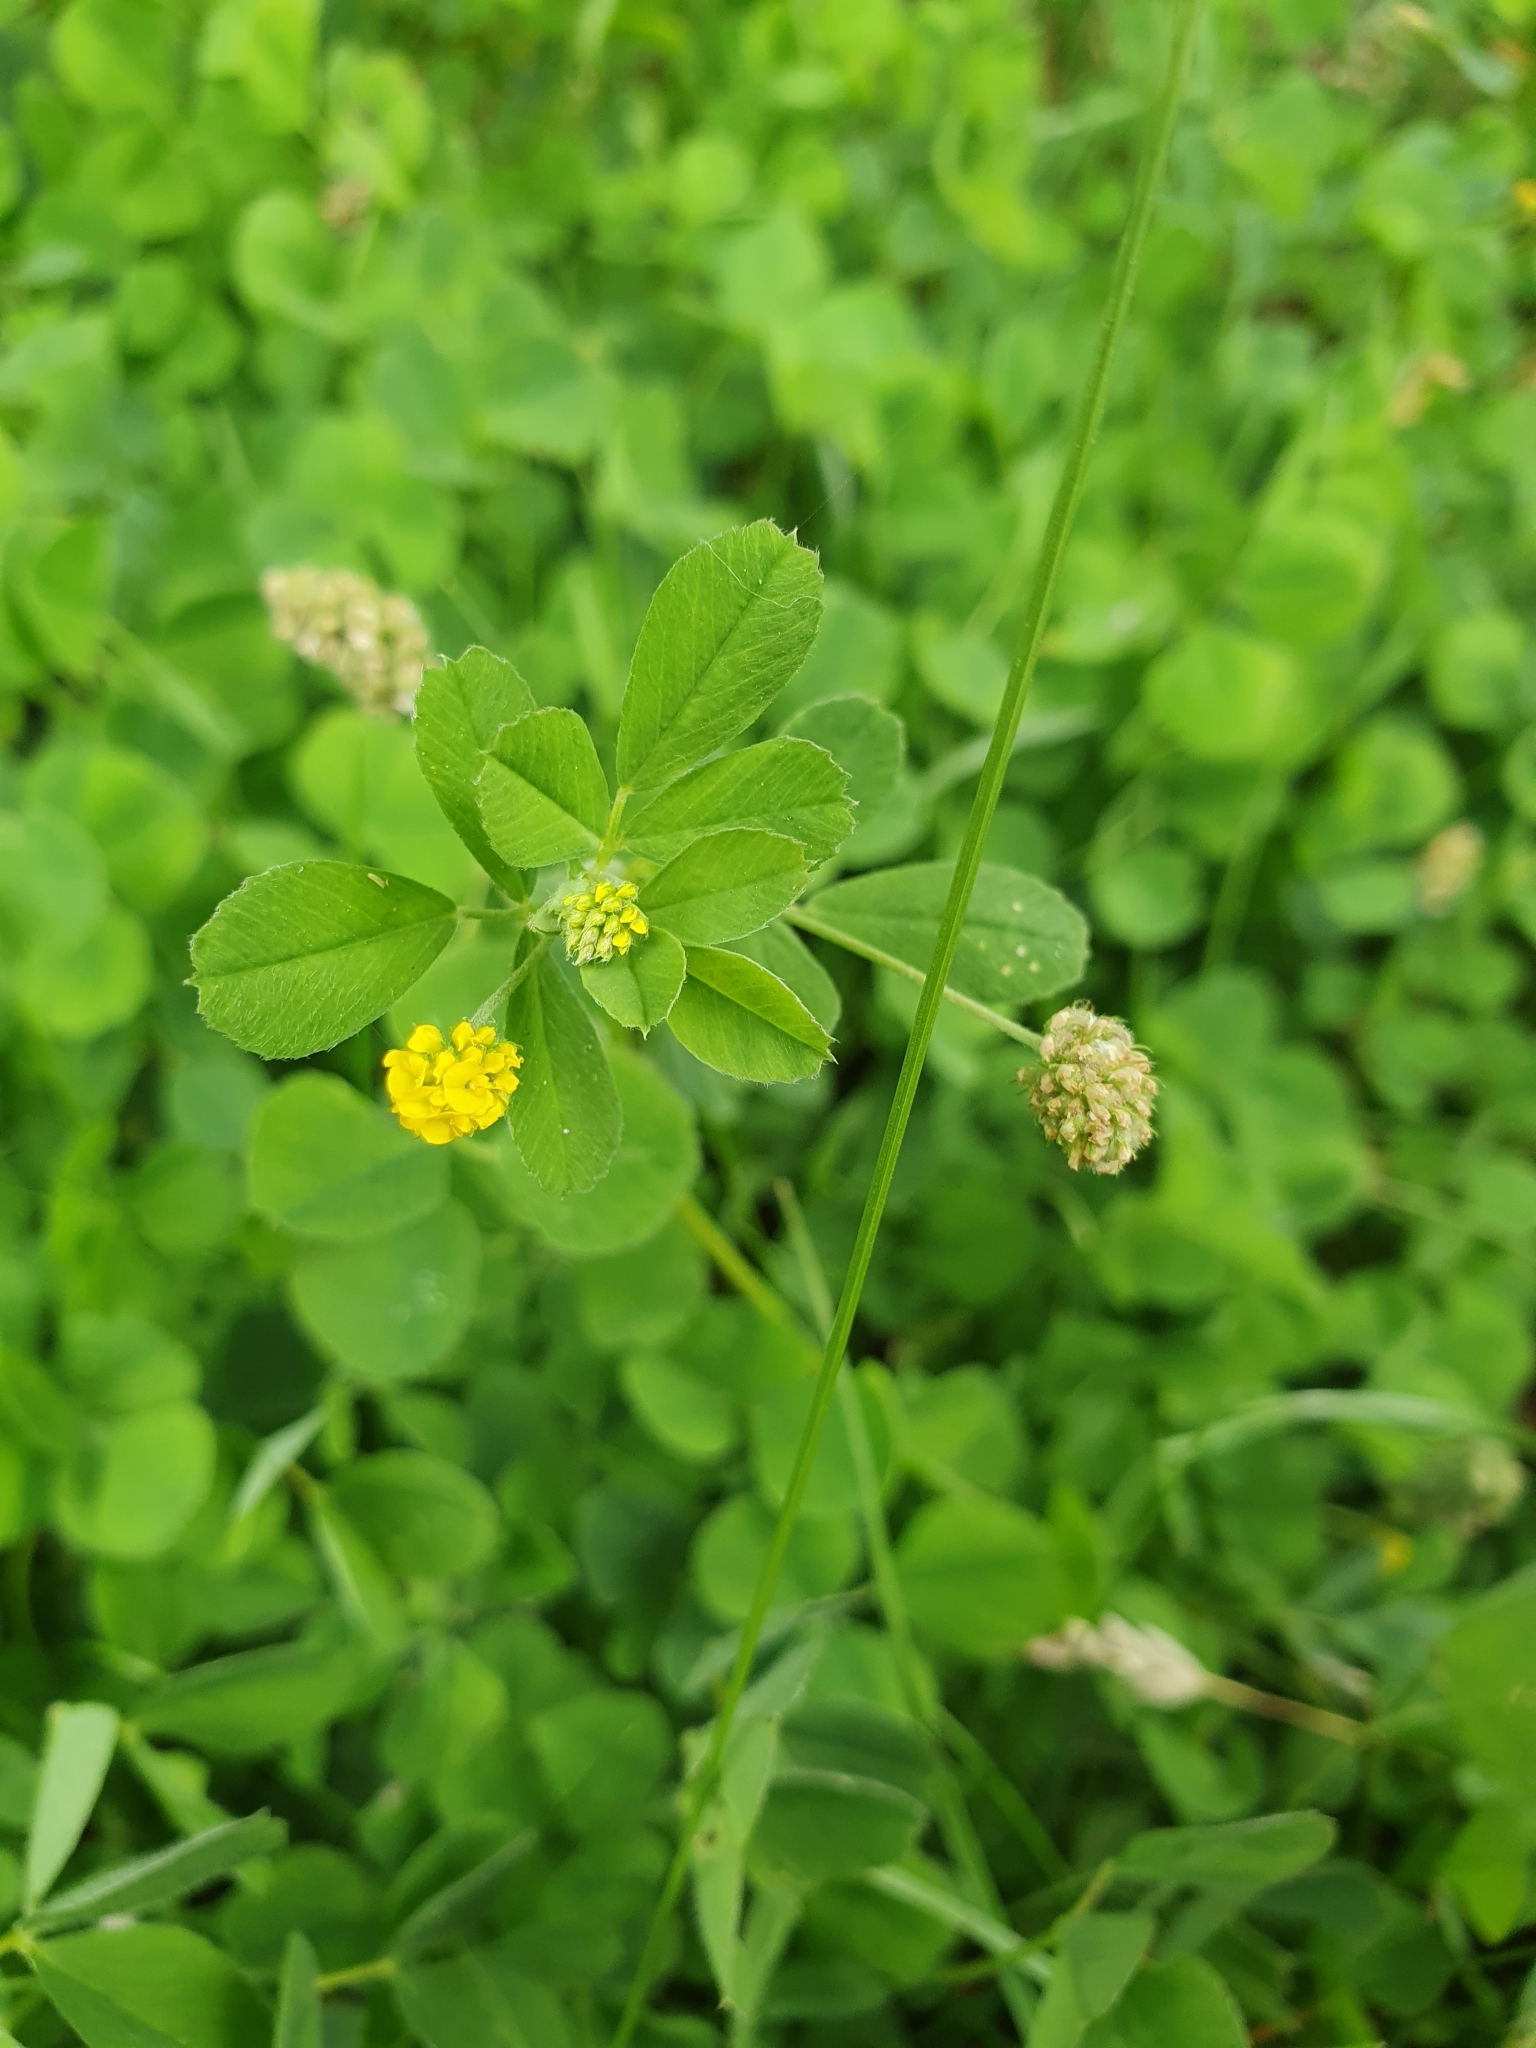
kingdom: Plantae
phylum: Tracheophyta
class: Magnoliopsida
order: Fabales
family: Fabaceae
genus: Medicago
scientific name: Medicago lupulina
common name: Black medick
